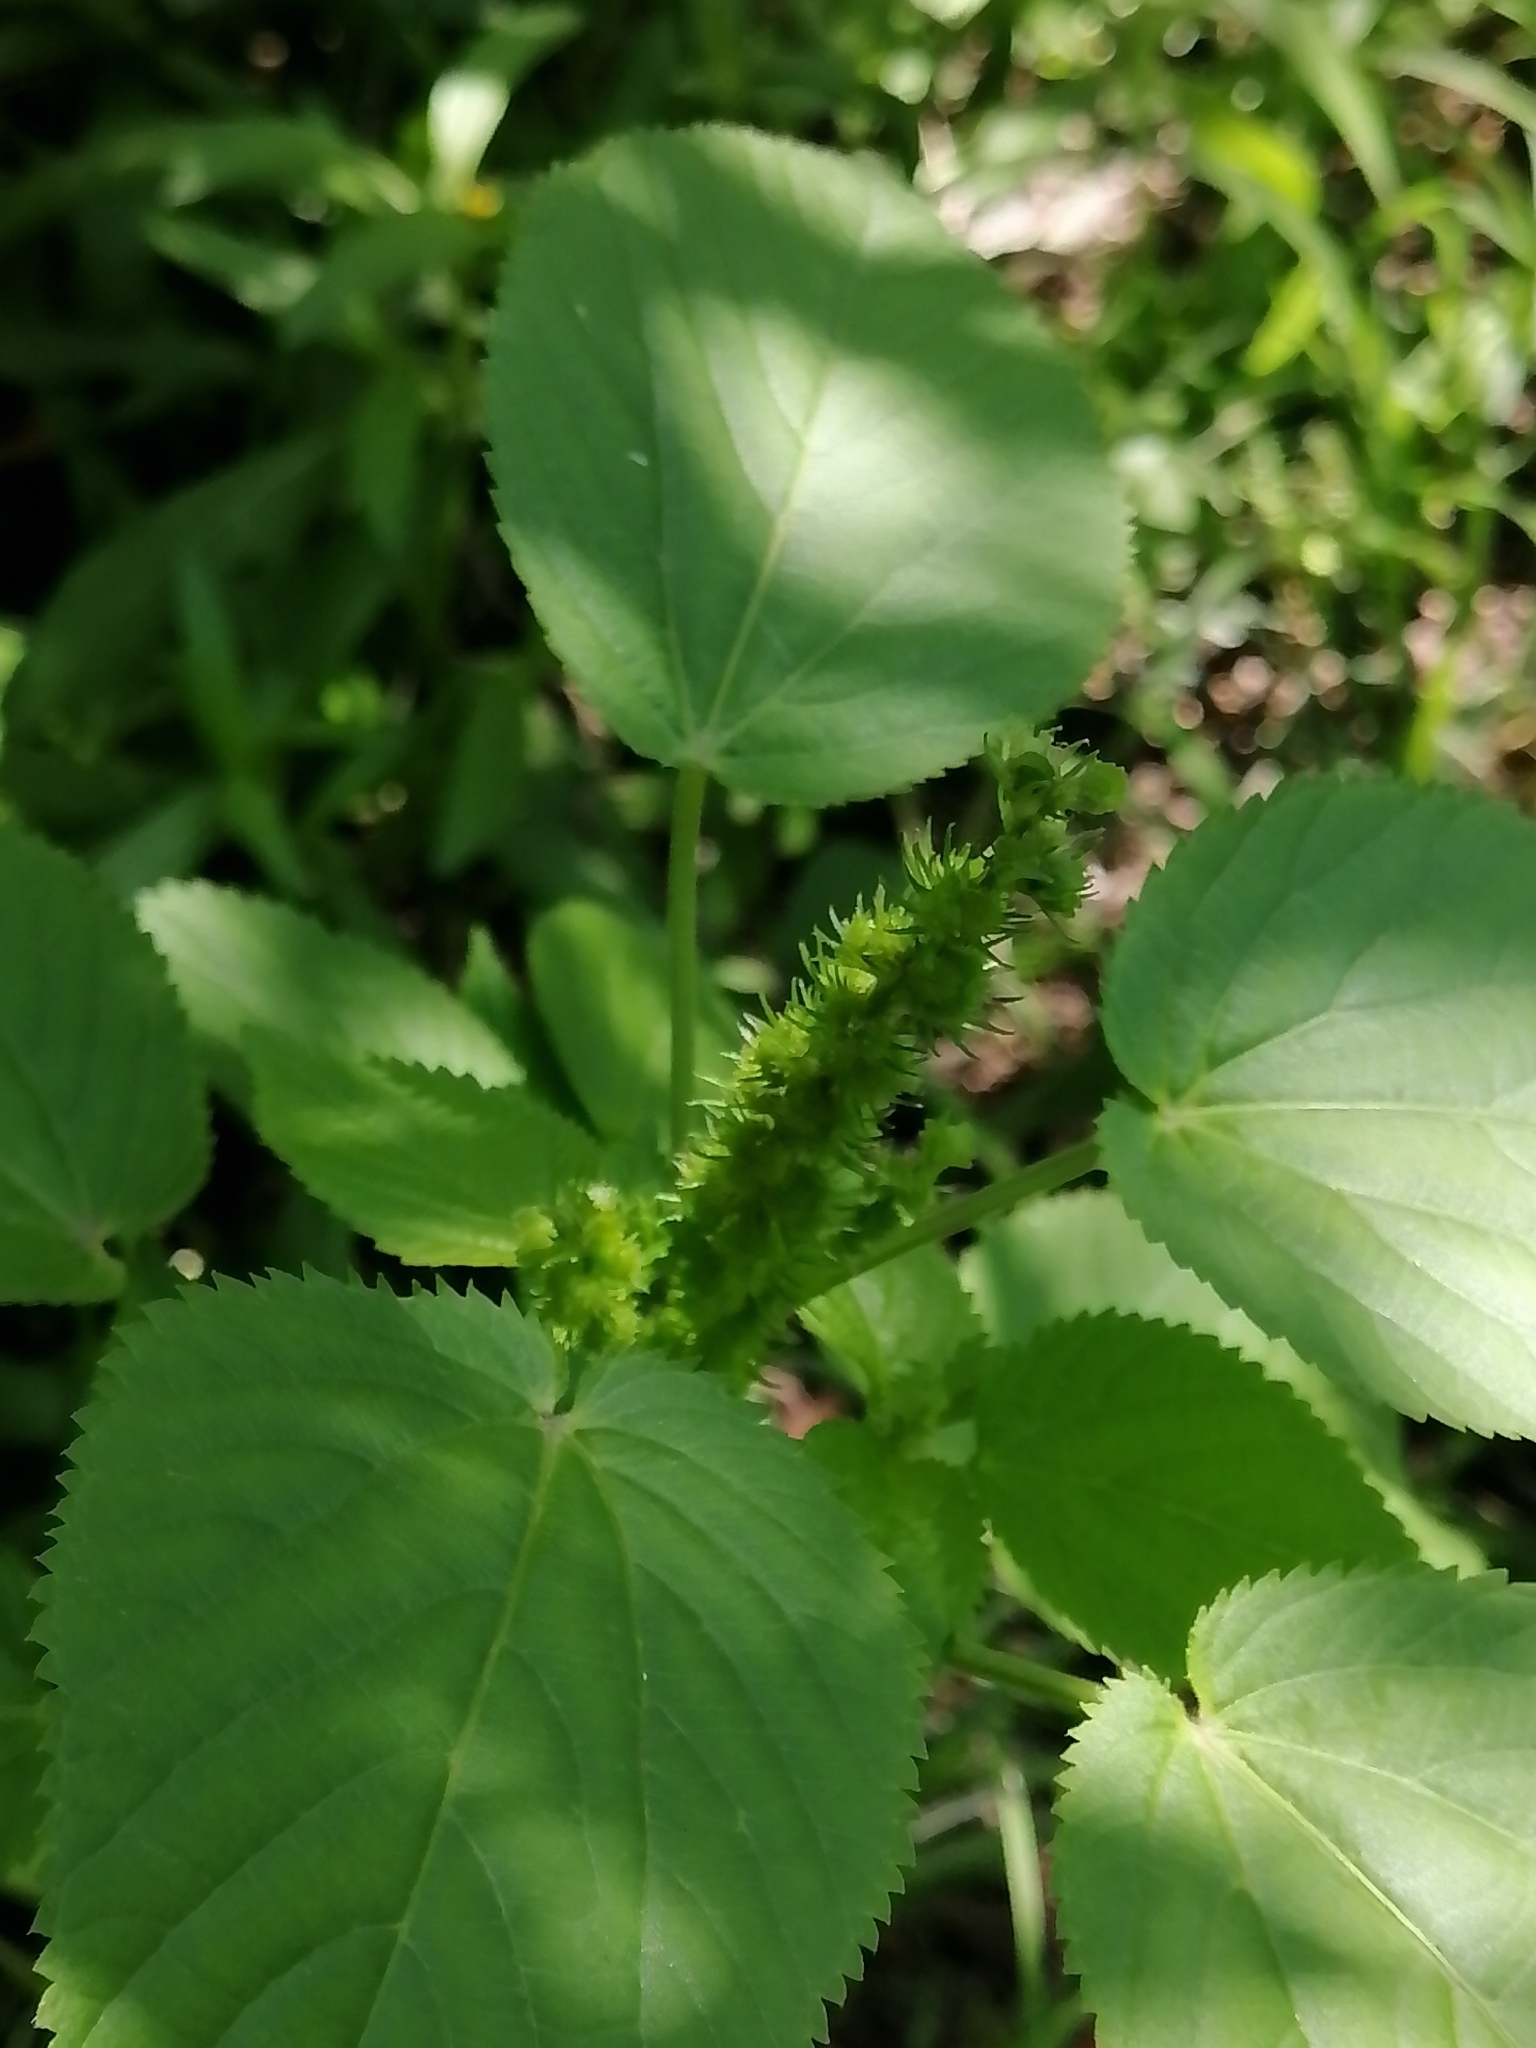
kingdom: Plantae
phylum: Tracheophyta
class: Magnoliopsida
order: Malpighiales
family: Euphorbiaceae
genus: Acalypha
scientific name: Acalypha ostryifolia
